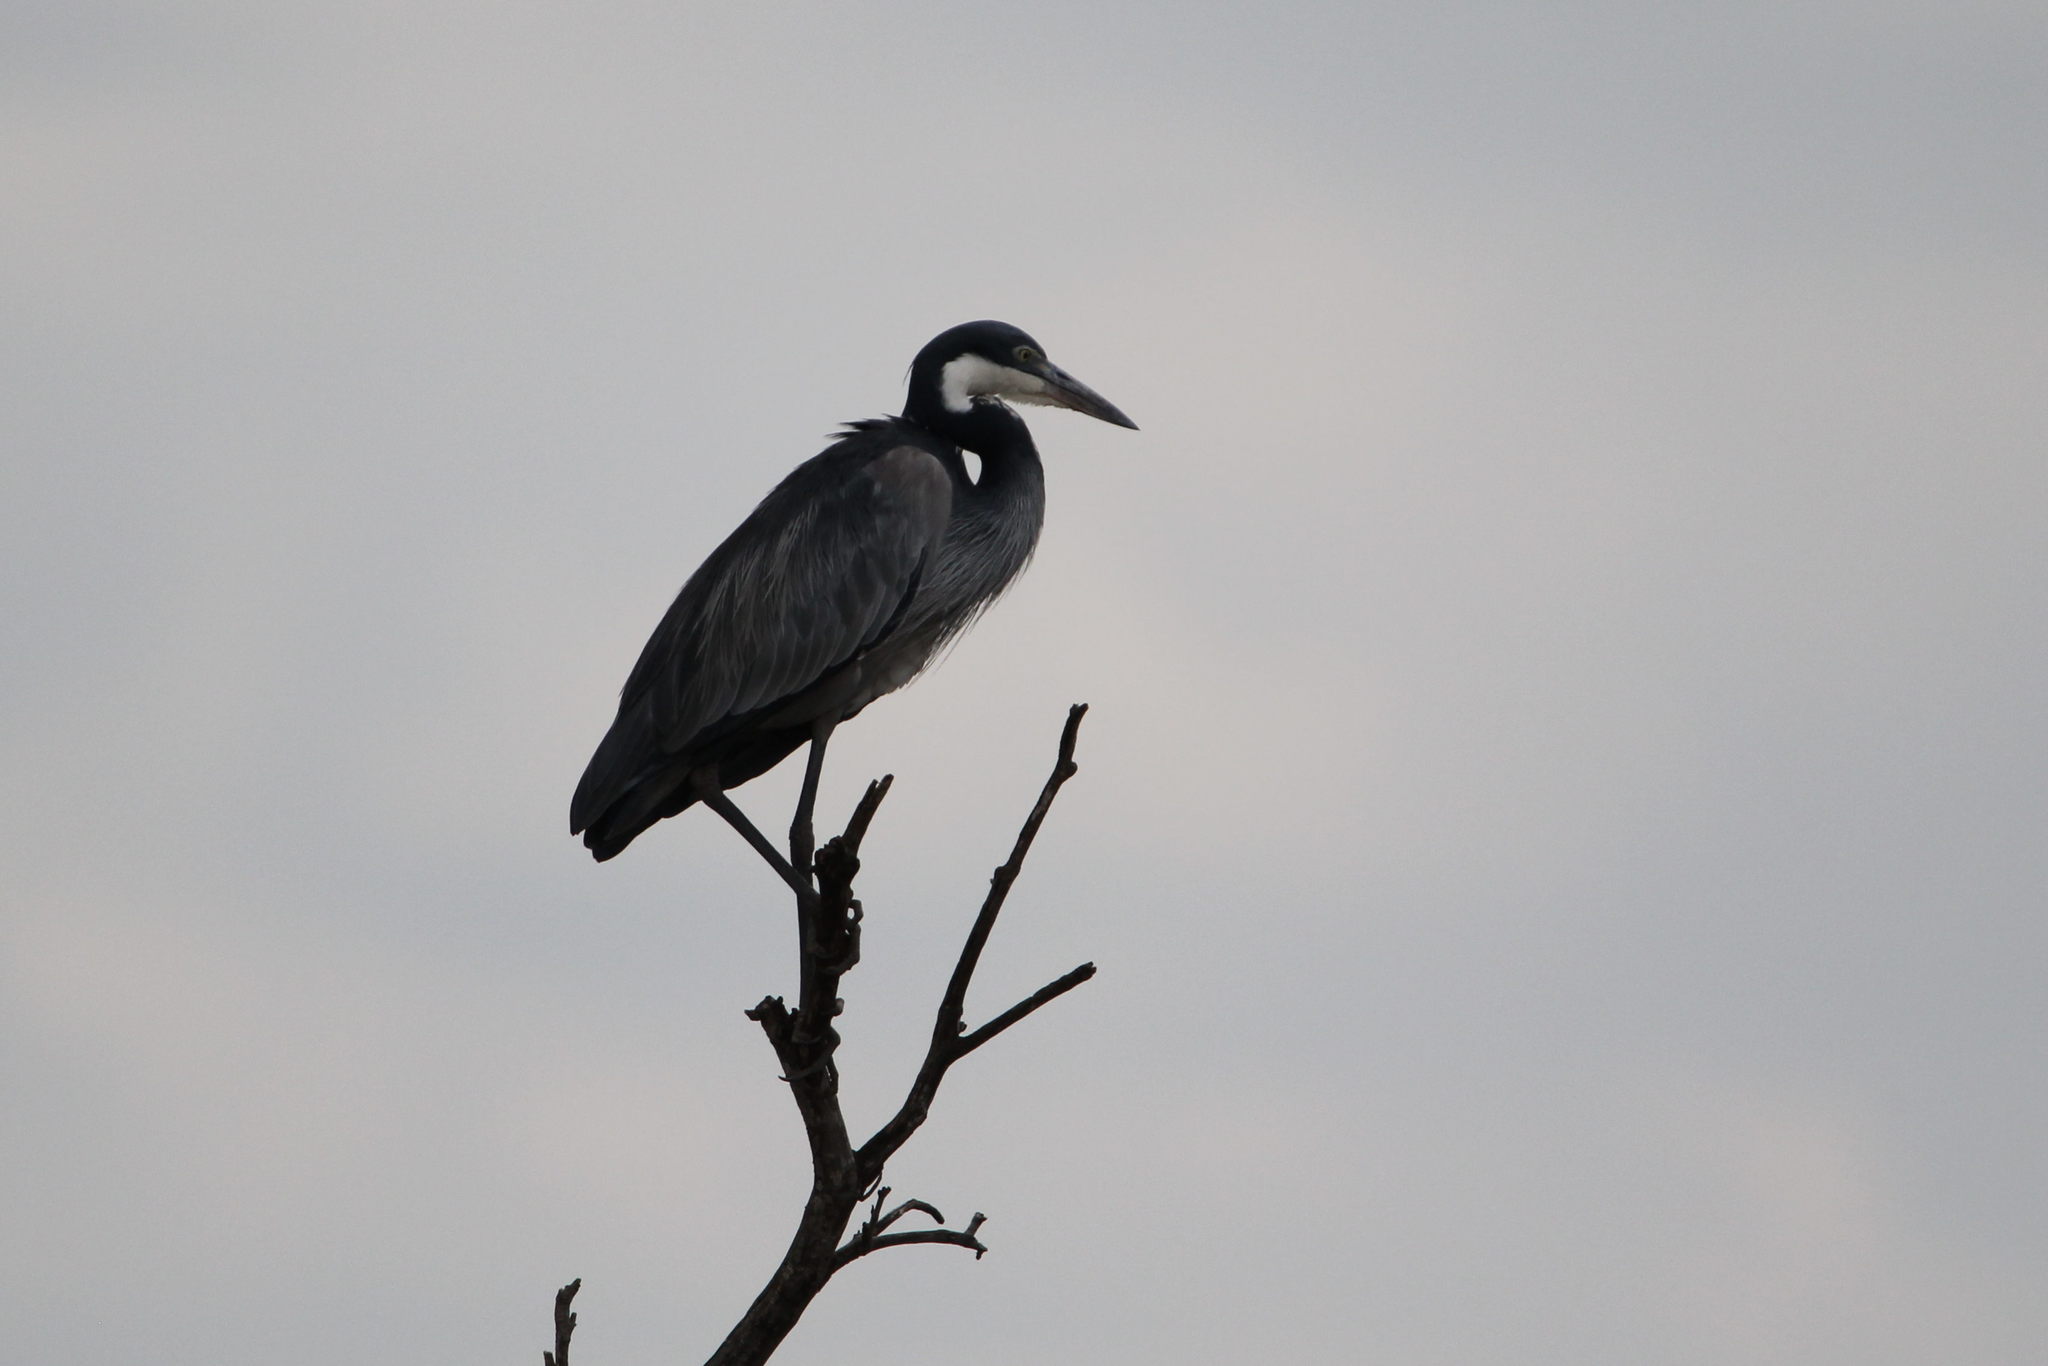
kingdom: Animalia
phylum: Chordata
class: Aves
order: Pelecaniformes
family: Ardeidae
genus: Ardea
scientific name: Ardea melanocephala
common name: Black-headed heron
